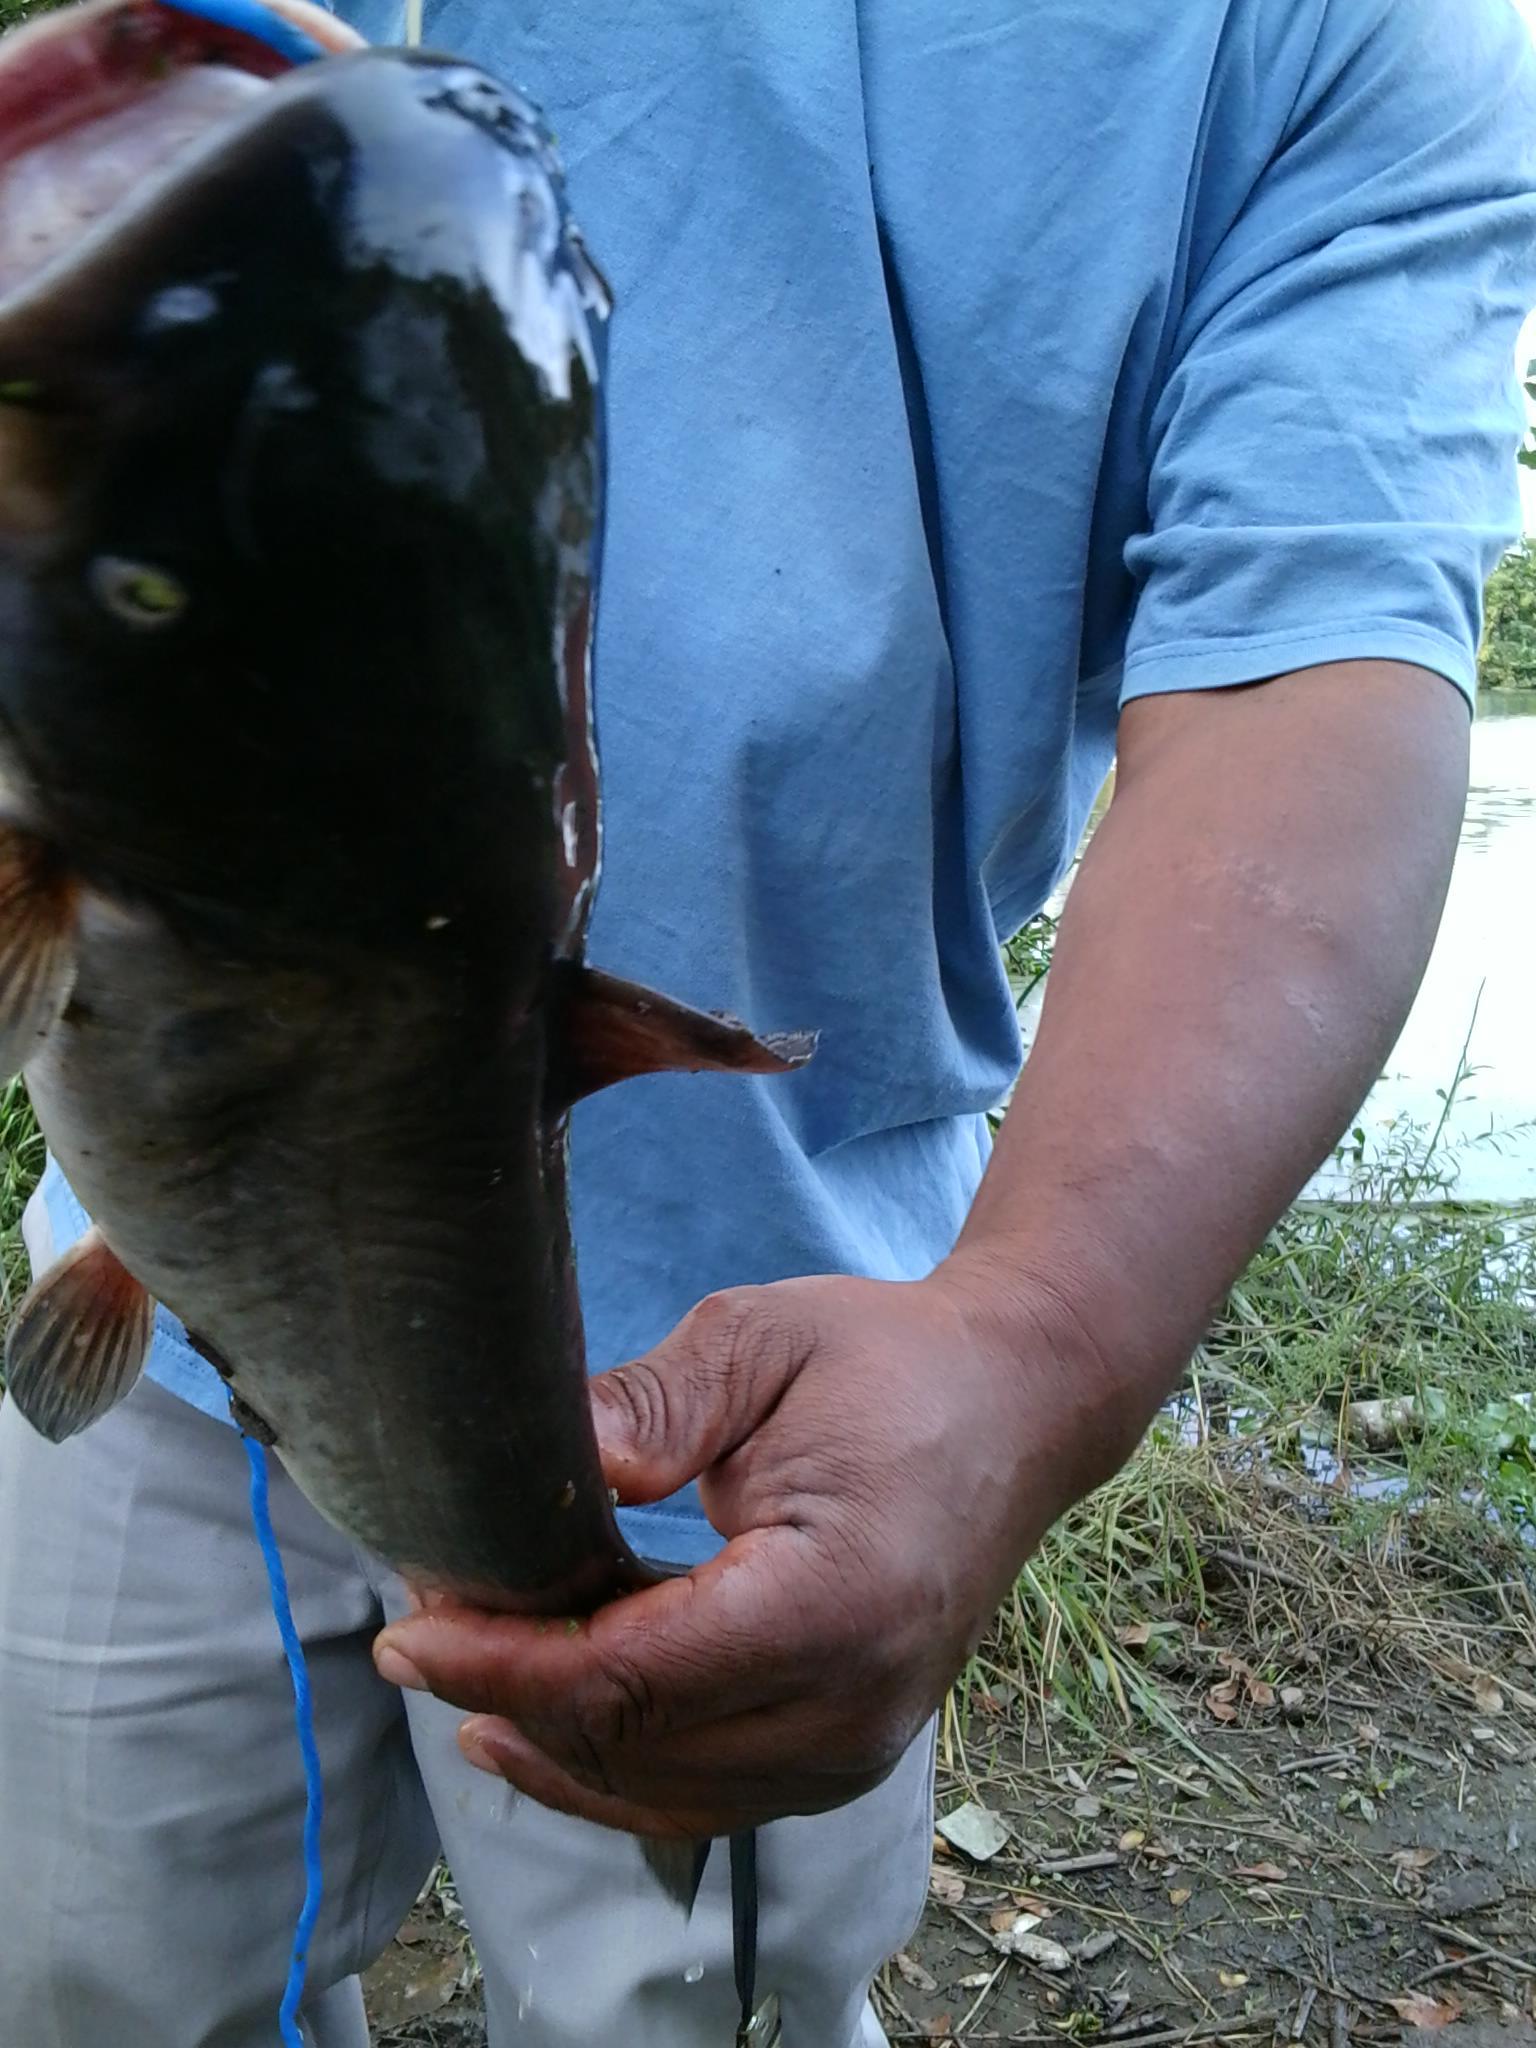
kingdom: Animalia
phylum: Chordata
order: Siluriformes
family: Ictaluridae
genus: Ameiurus
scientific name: Ameiurus catus
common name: White catfish
